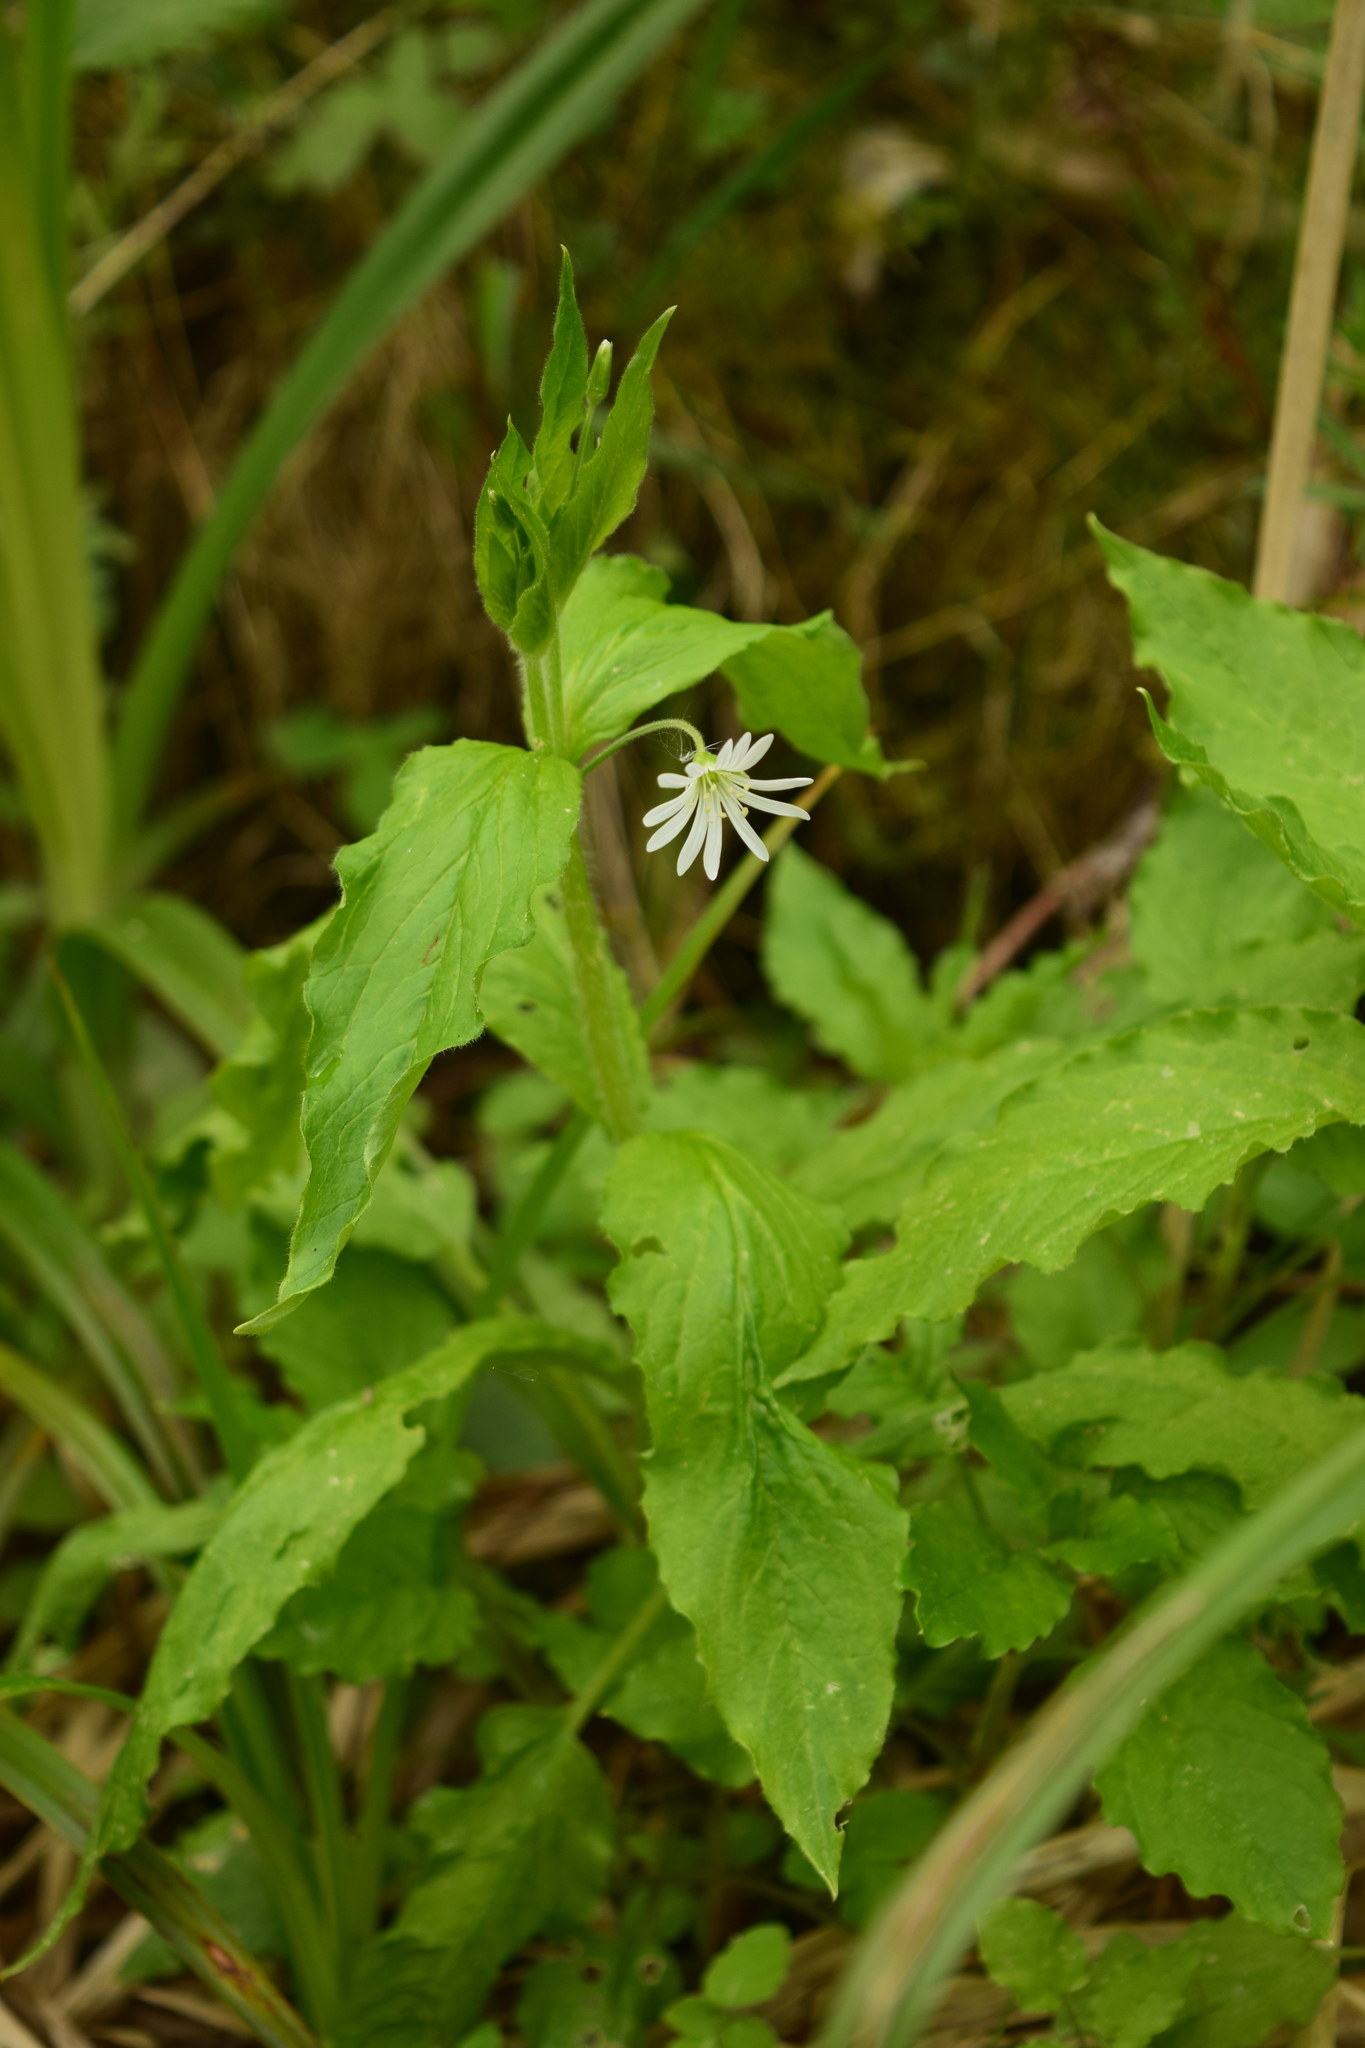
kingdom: Plantae
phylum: Tracheophyta
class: Magnoliopsida
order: Caryophyllales
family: Caryophyllaceae
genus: Stellaria
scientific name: Stellaria nemorum
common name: Wood stitchwort
